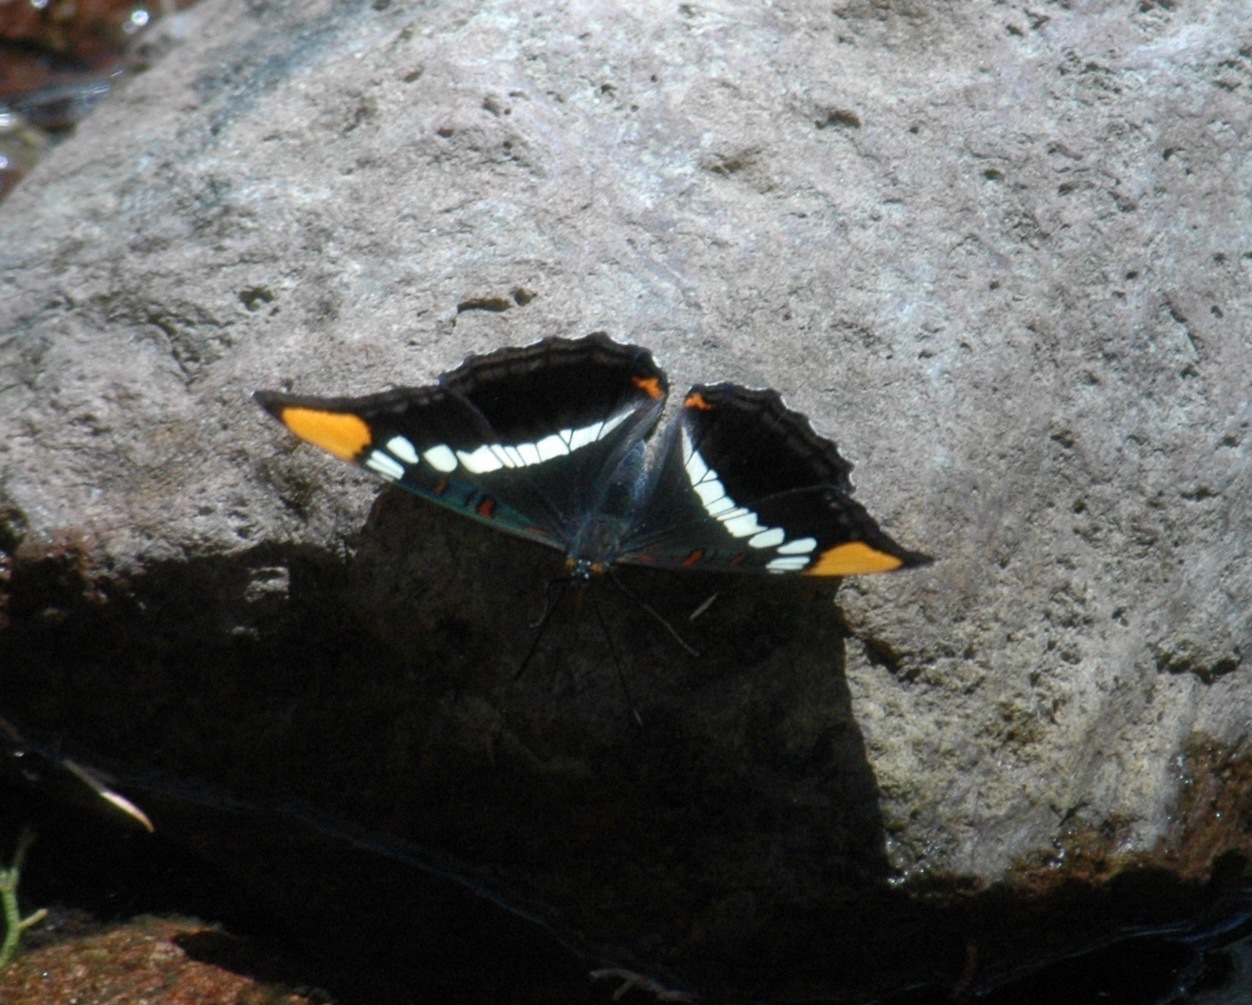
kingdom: Animalia
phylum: Arthropoda
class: Insecta
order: Lepidoptera
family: Nymphalidae
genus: Limenitis
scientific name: Limenitis bredowii
